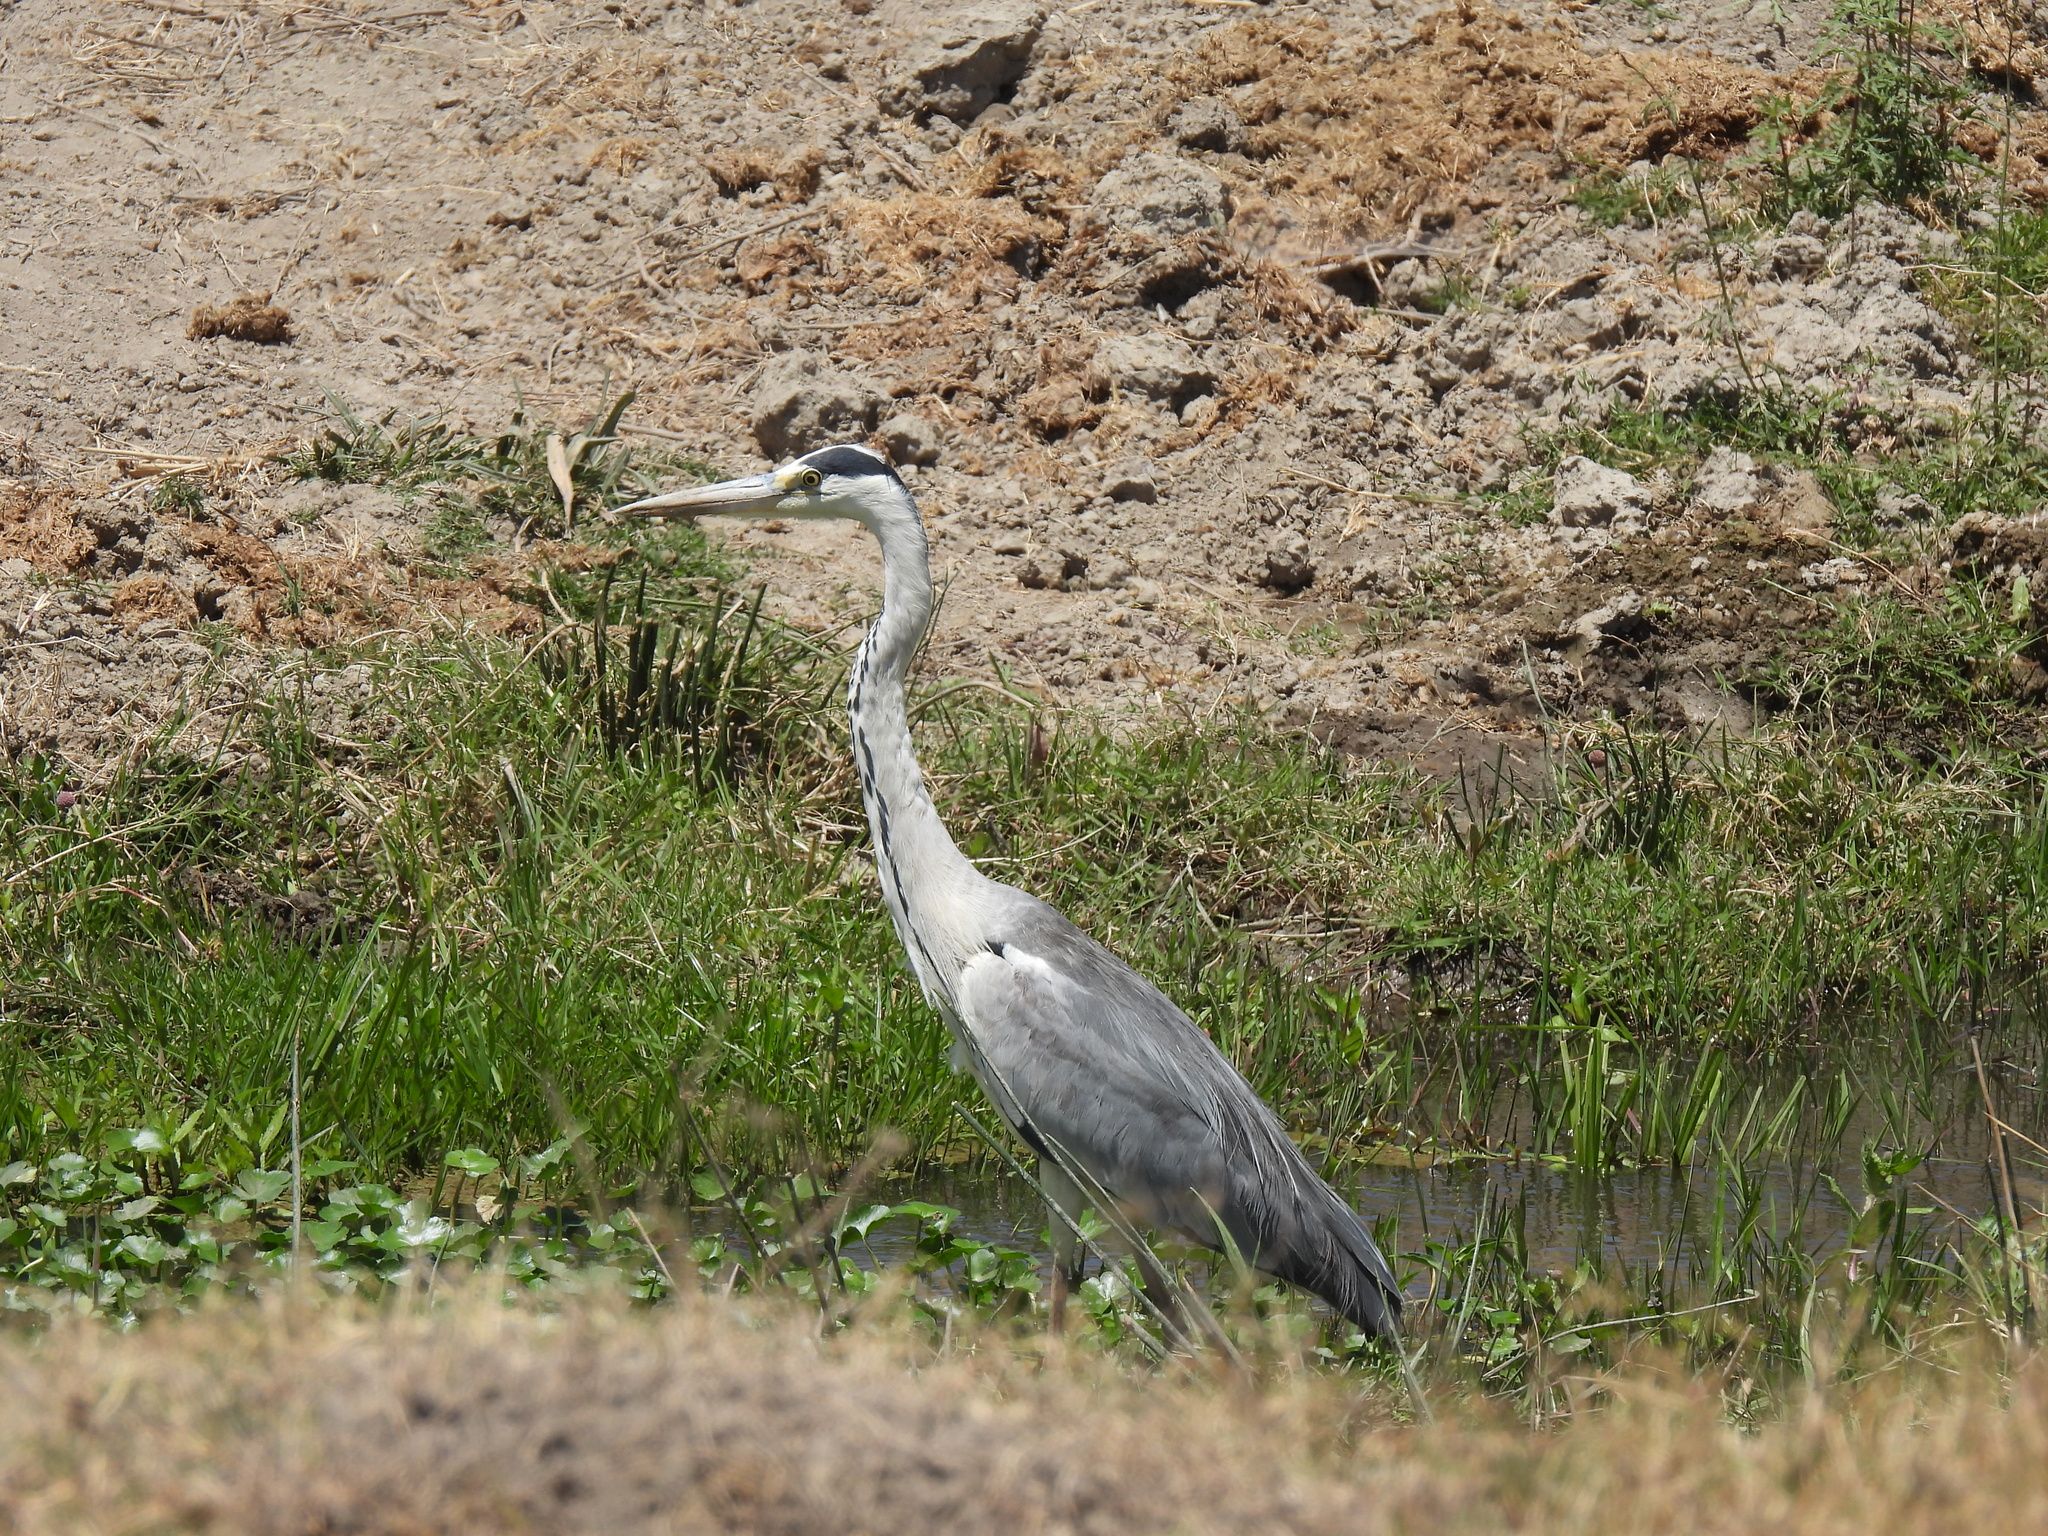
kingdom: Animalia
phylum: Chordata
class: Aves
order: Pelecaniformes
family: Ardeidae
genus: Ardea
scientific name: Ardea cinerea
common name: Grey heron
